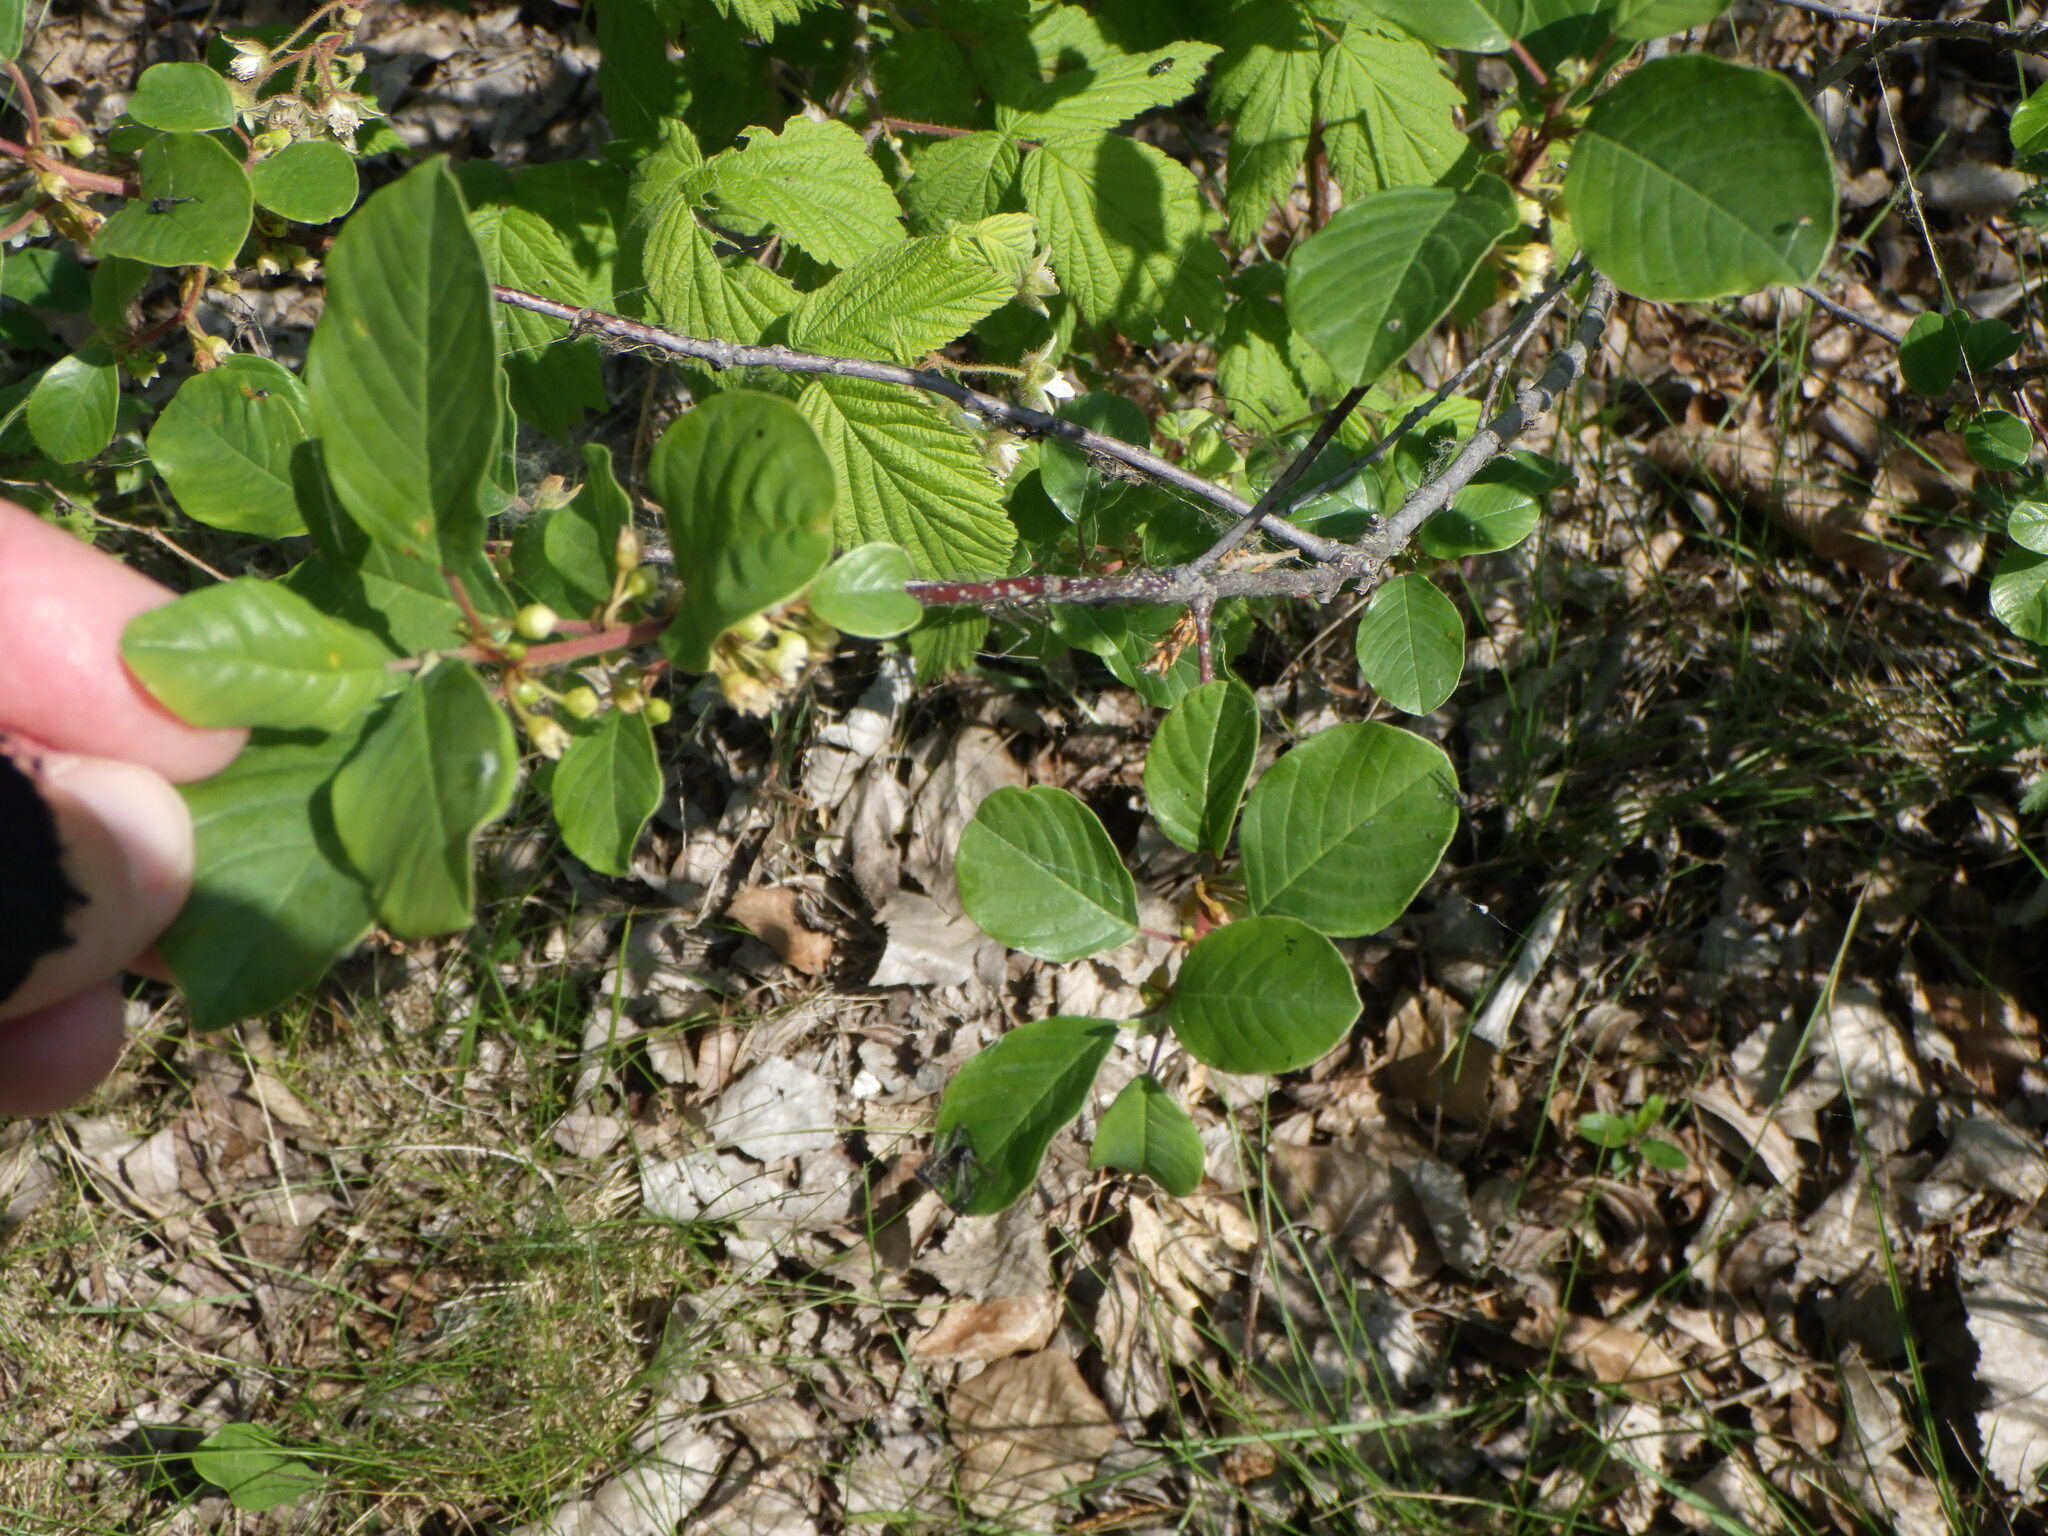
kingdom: Plantae
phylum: Tracheophyta
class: Magnoliopsida
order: Rosales
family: Rhamnaceae
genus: Frangula
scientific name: Frangula alnus
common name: Alder buckthorn
